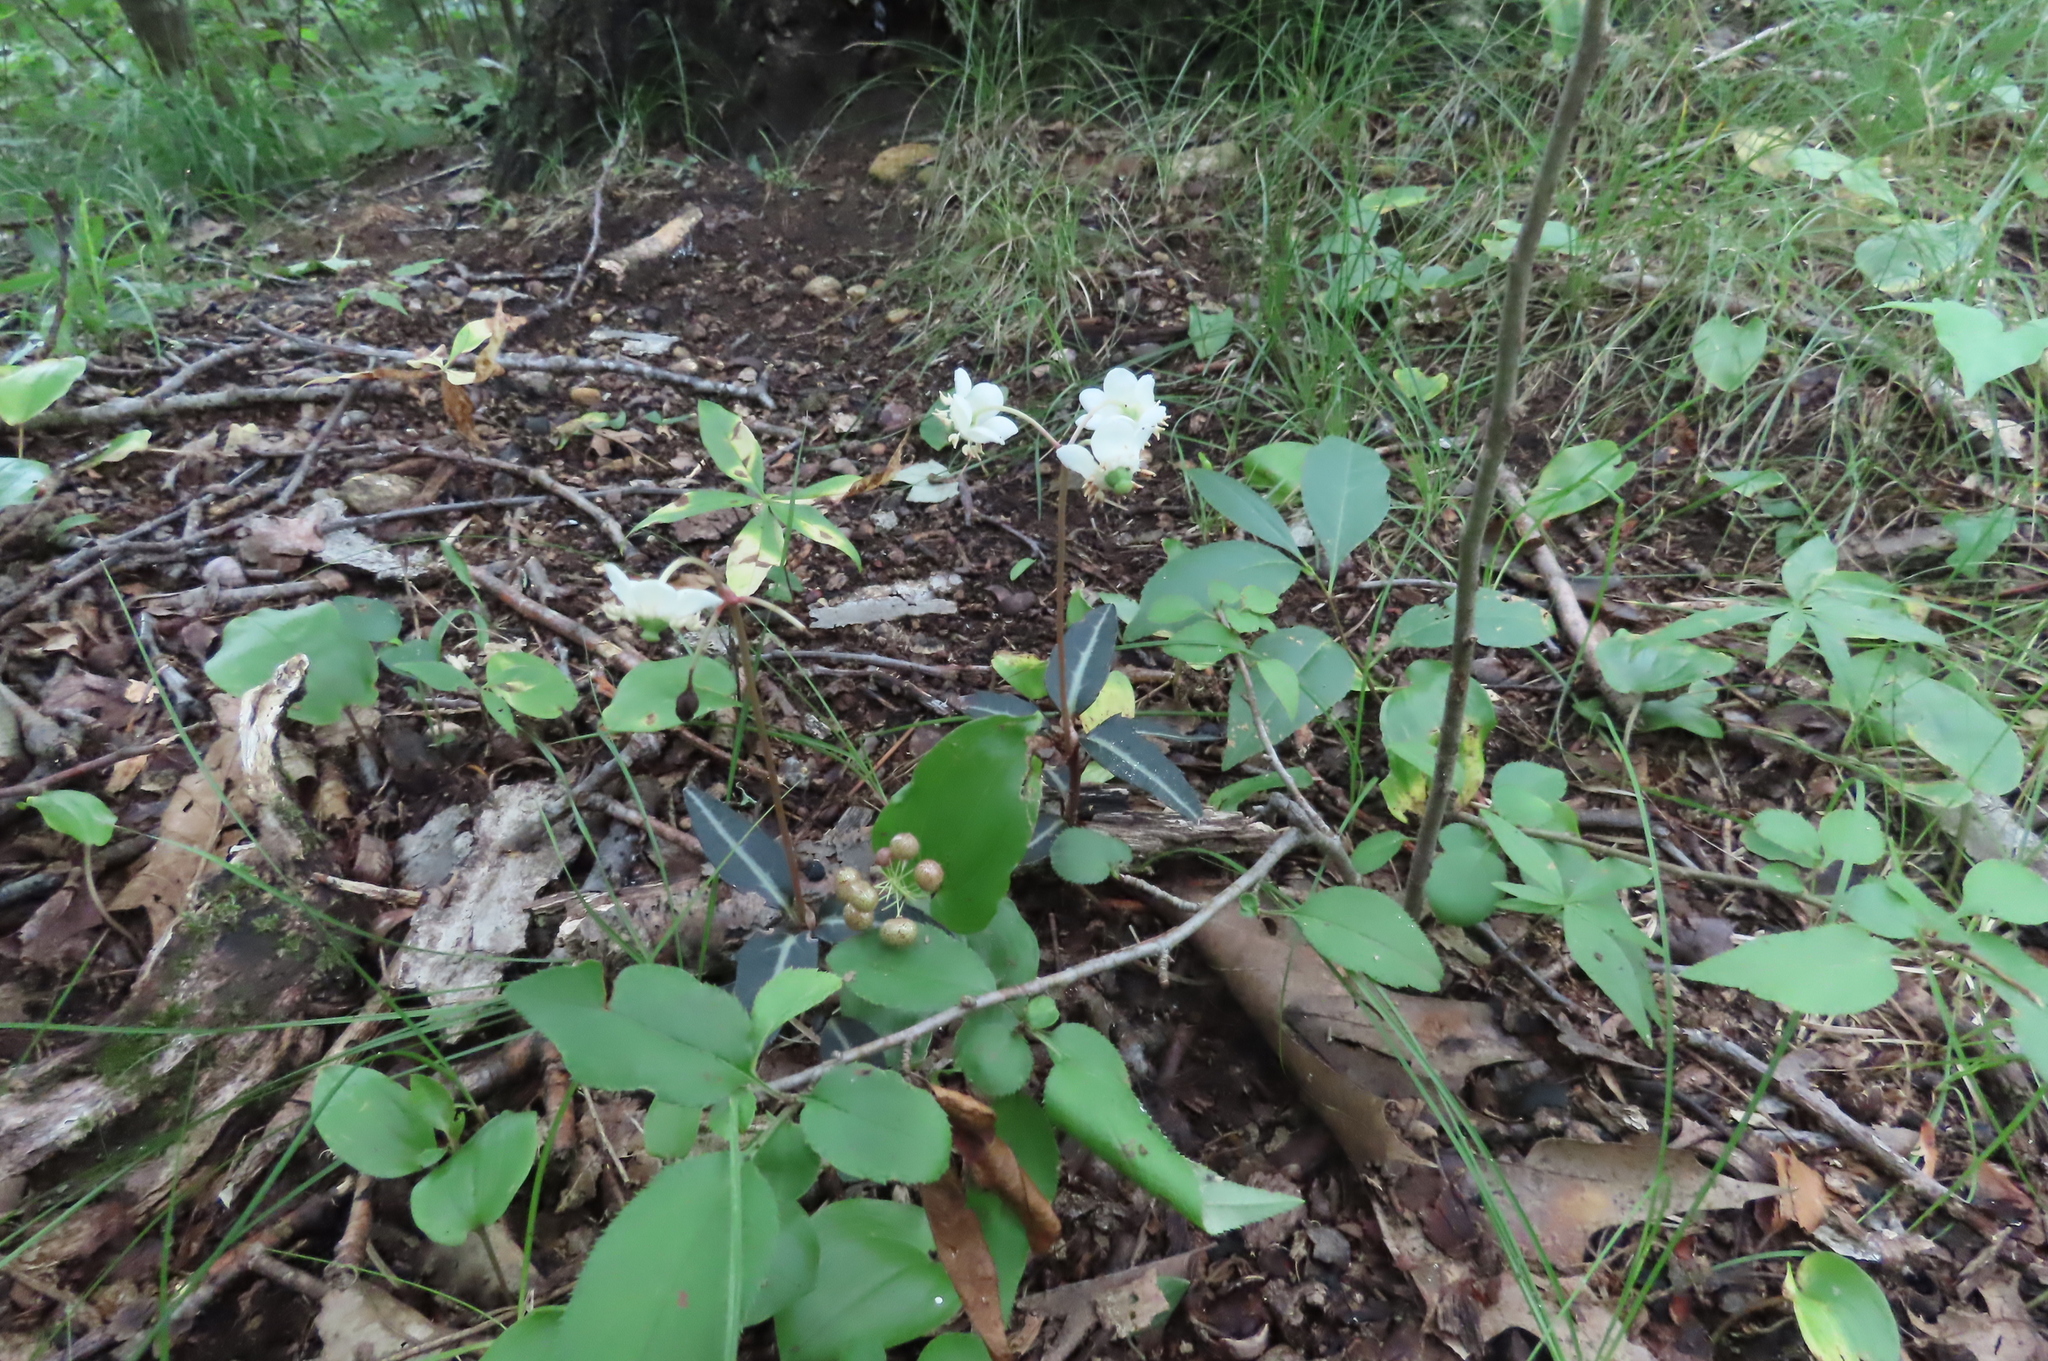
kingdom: Plantae
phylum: Tracheophyta
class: Magnoliopsida
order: Ericales
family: Ericaceae
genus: Chimaphila
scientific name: Chimaphila maculata
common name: Spotted pipsissewa
